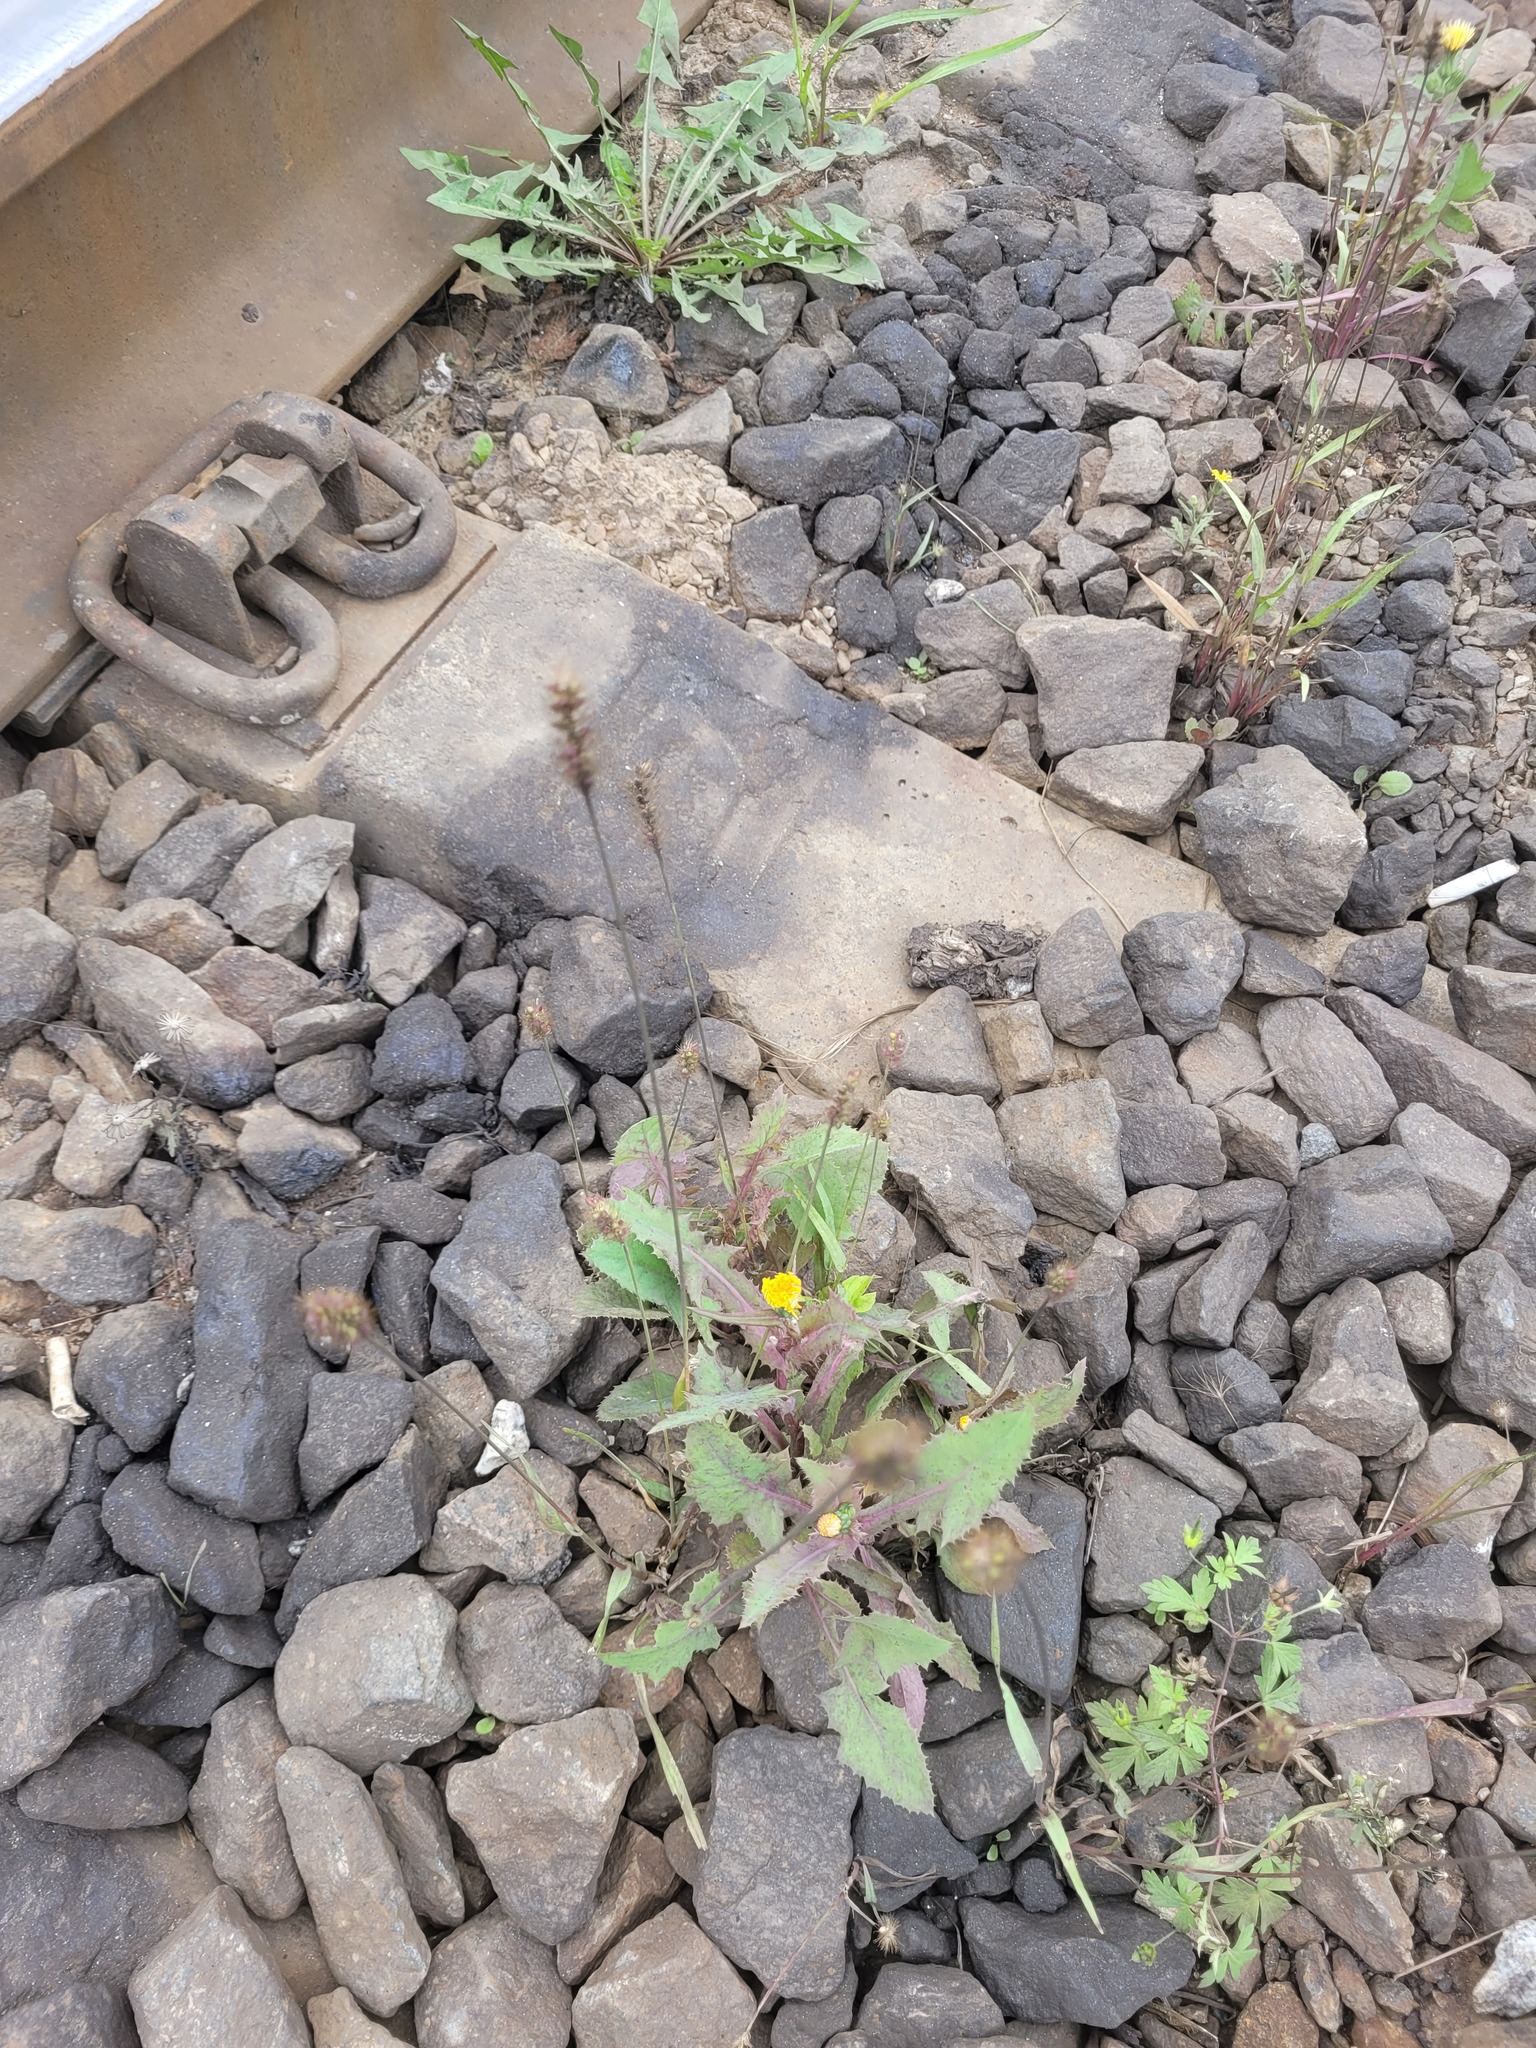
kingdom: Plantae
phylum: Tracheophyta
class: Liliopsida
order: Poales
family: Poaceae
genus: Setaria
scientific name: Setaria pumila
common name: Yellow bristle-grass
